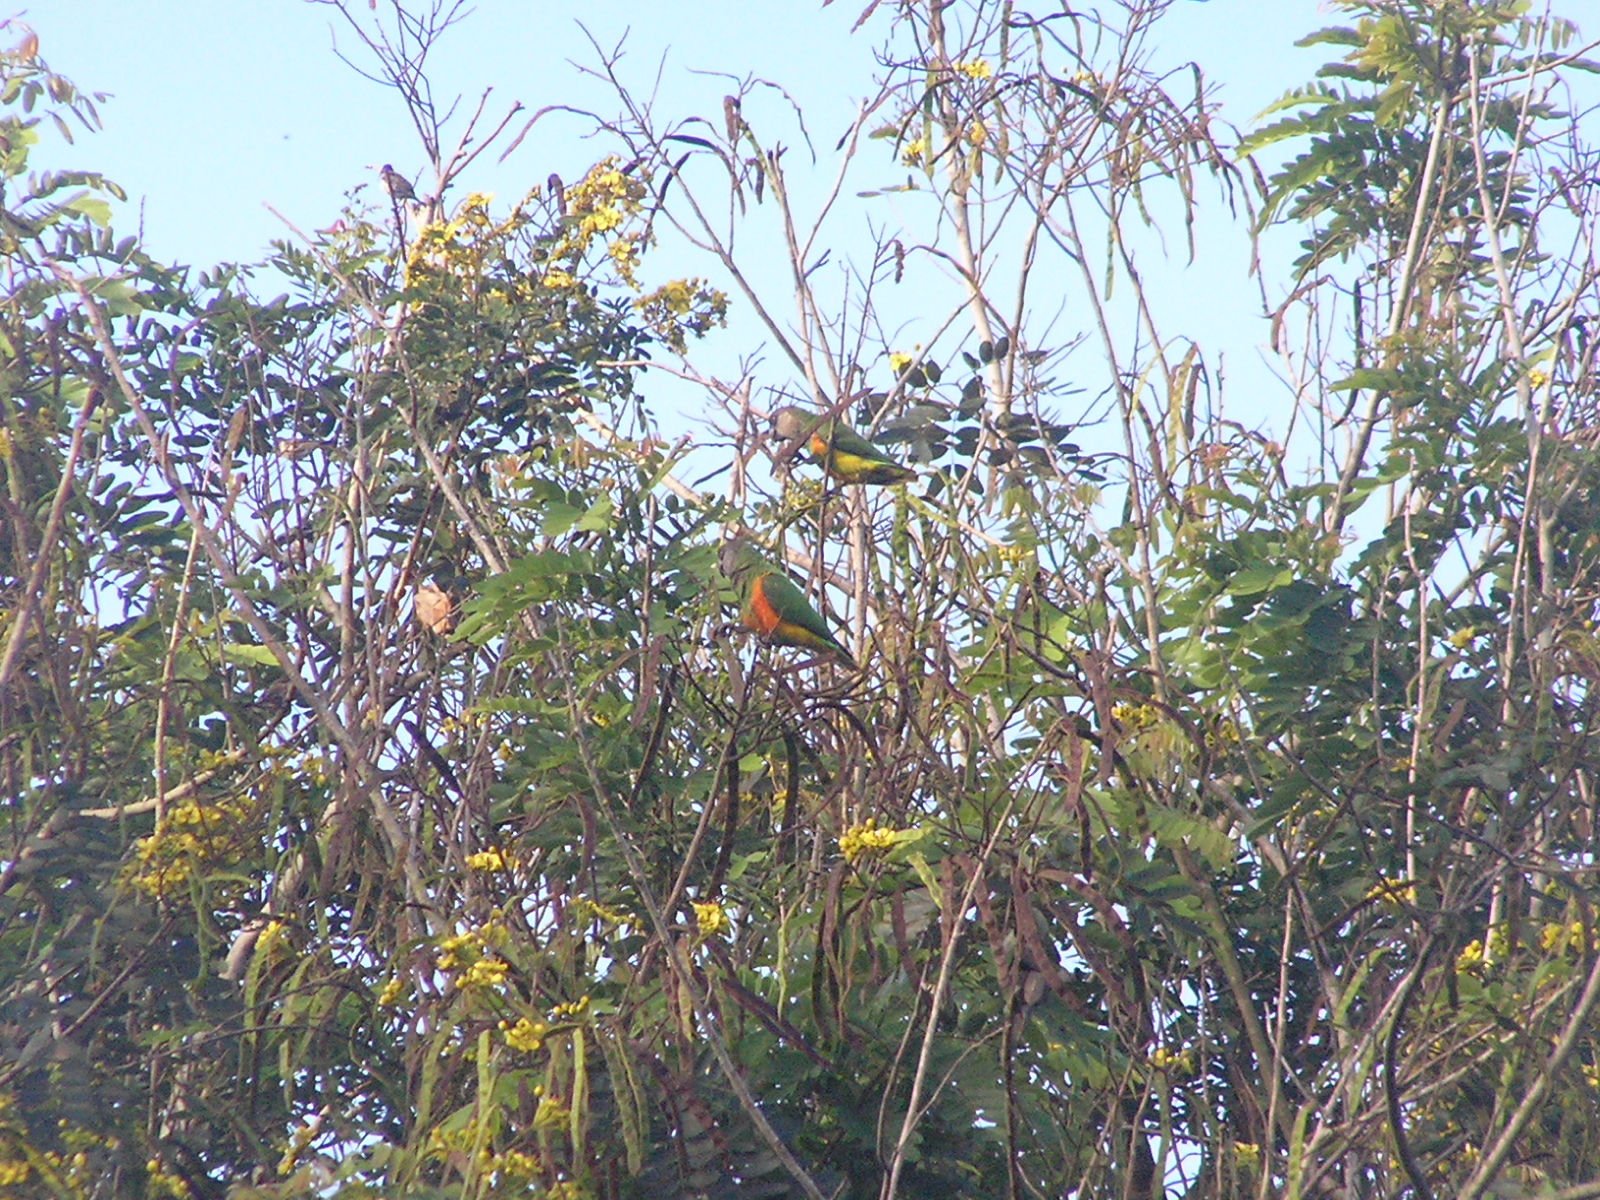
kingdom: Animalia
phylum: Chordata
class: Aves
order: Psittaciformes
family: Psittacidae
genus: Poicephalus
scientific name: Poicephalus senegalus
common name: Senegal parrot
